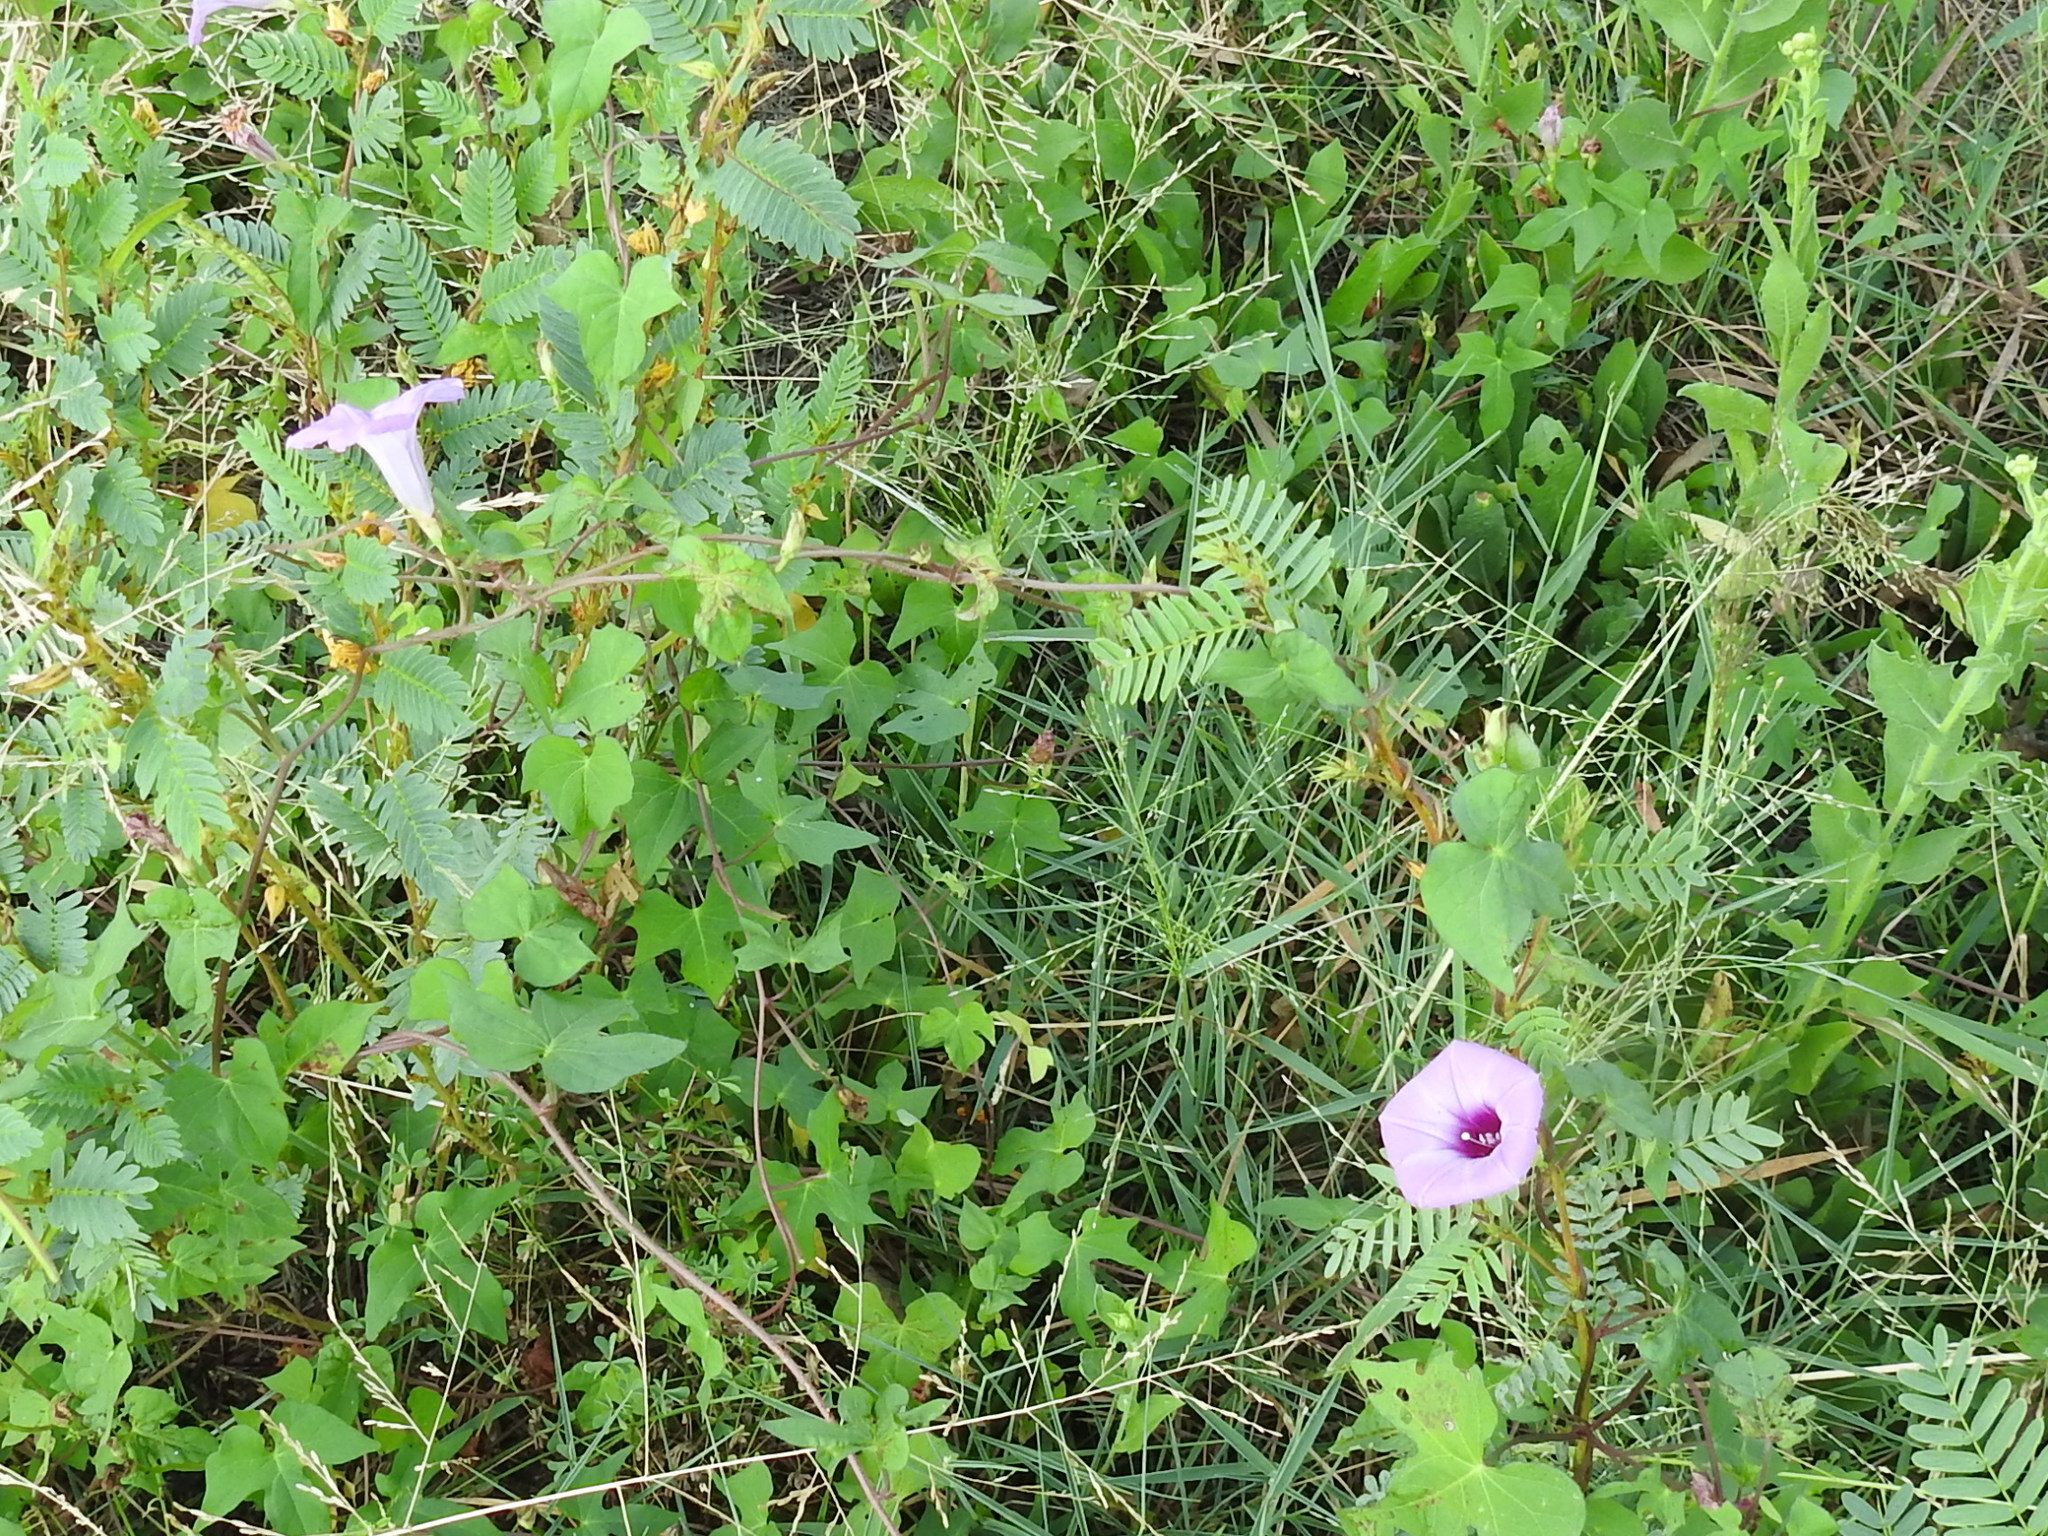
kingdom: Plantae
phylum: Tracheophyta
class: Magnoliopsida
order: Solanales
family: Convolvulaceae
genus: Ipomoea
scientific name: Ipomoea cordatotriloba
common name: Cotton morning glory
